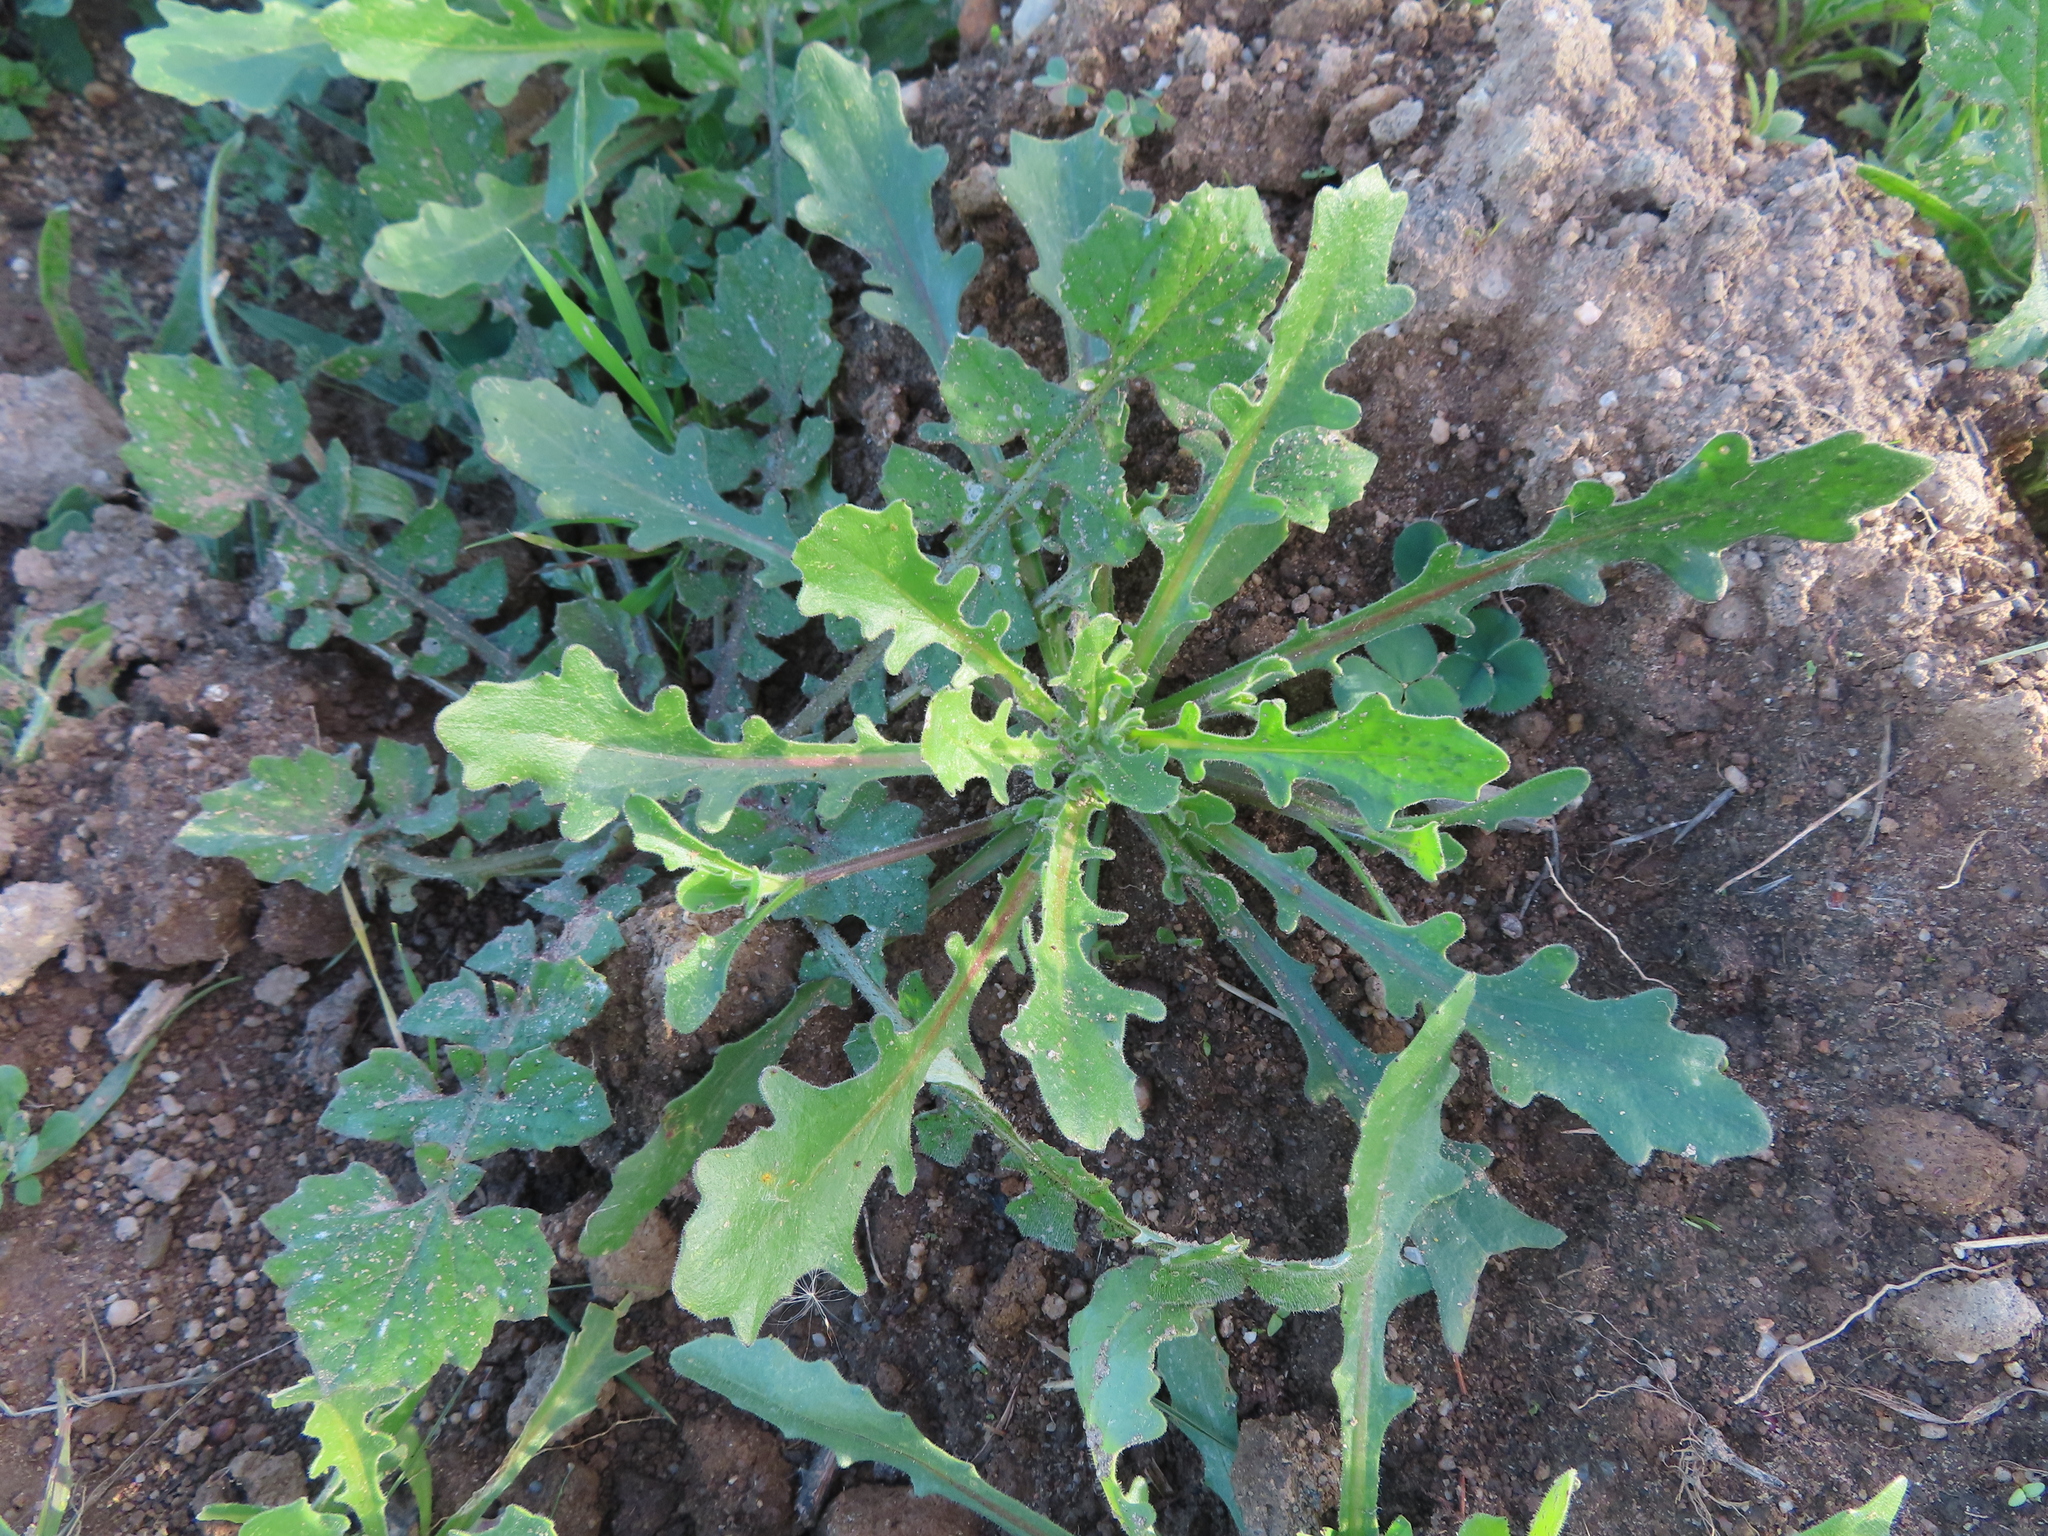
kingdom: Plantae
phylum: Tracheophyta
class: Magnoliopsida
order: Asterales
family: Asteraceae
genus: Arctotis
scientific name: Arctotis breviscapa
